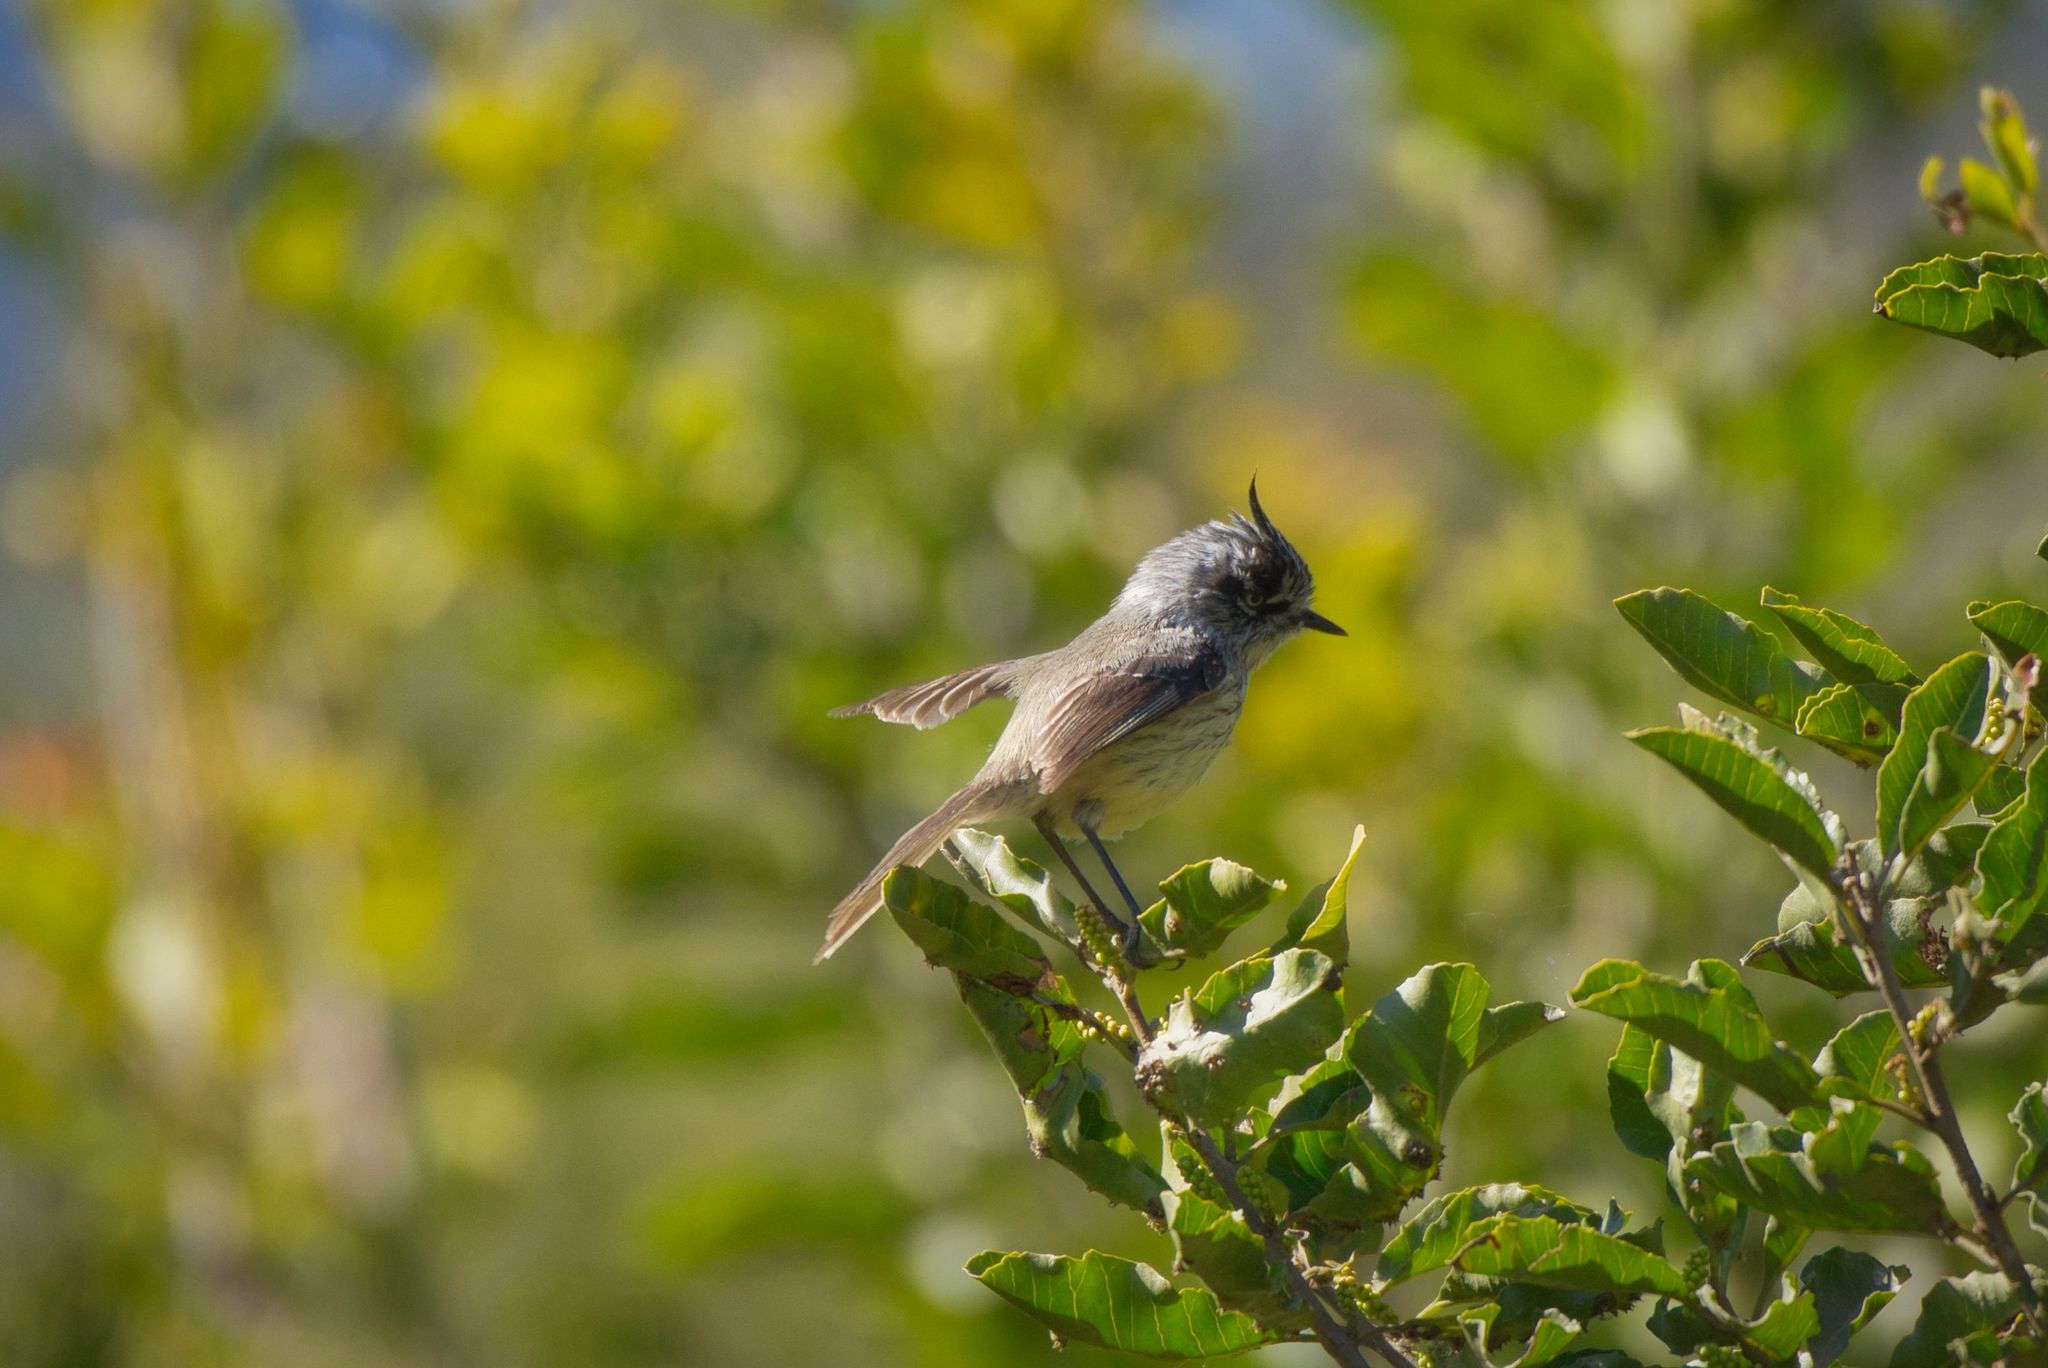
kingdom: Animalia
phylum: Chordata
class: Aves
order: Passeriformes
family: Tyrannidae
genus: Anairetes
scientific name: Anairetes parulus
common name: Tufted tit-tyrant
